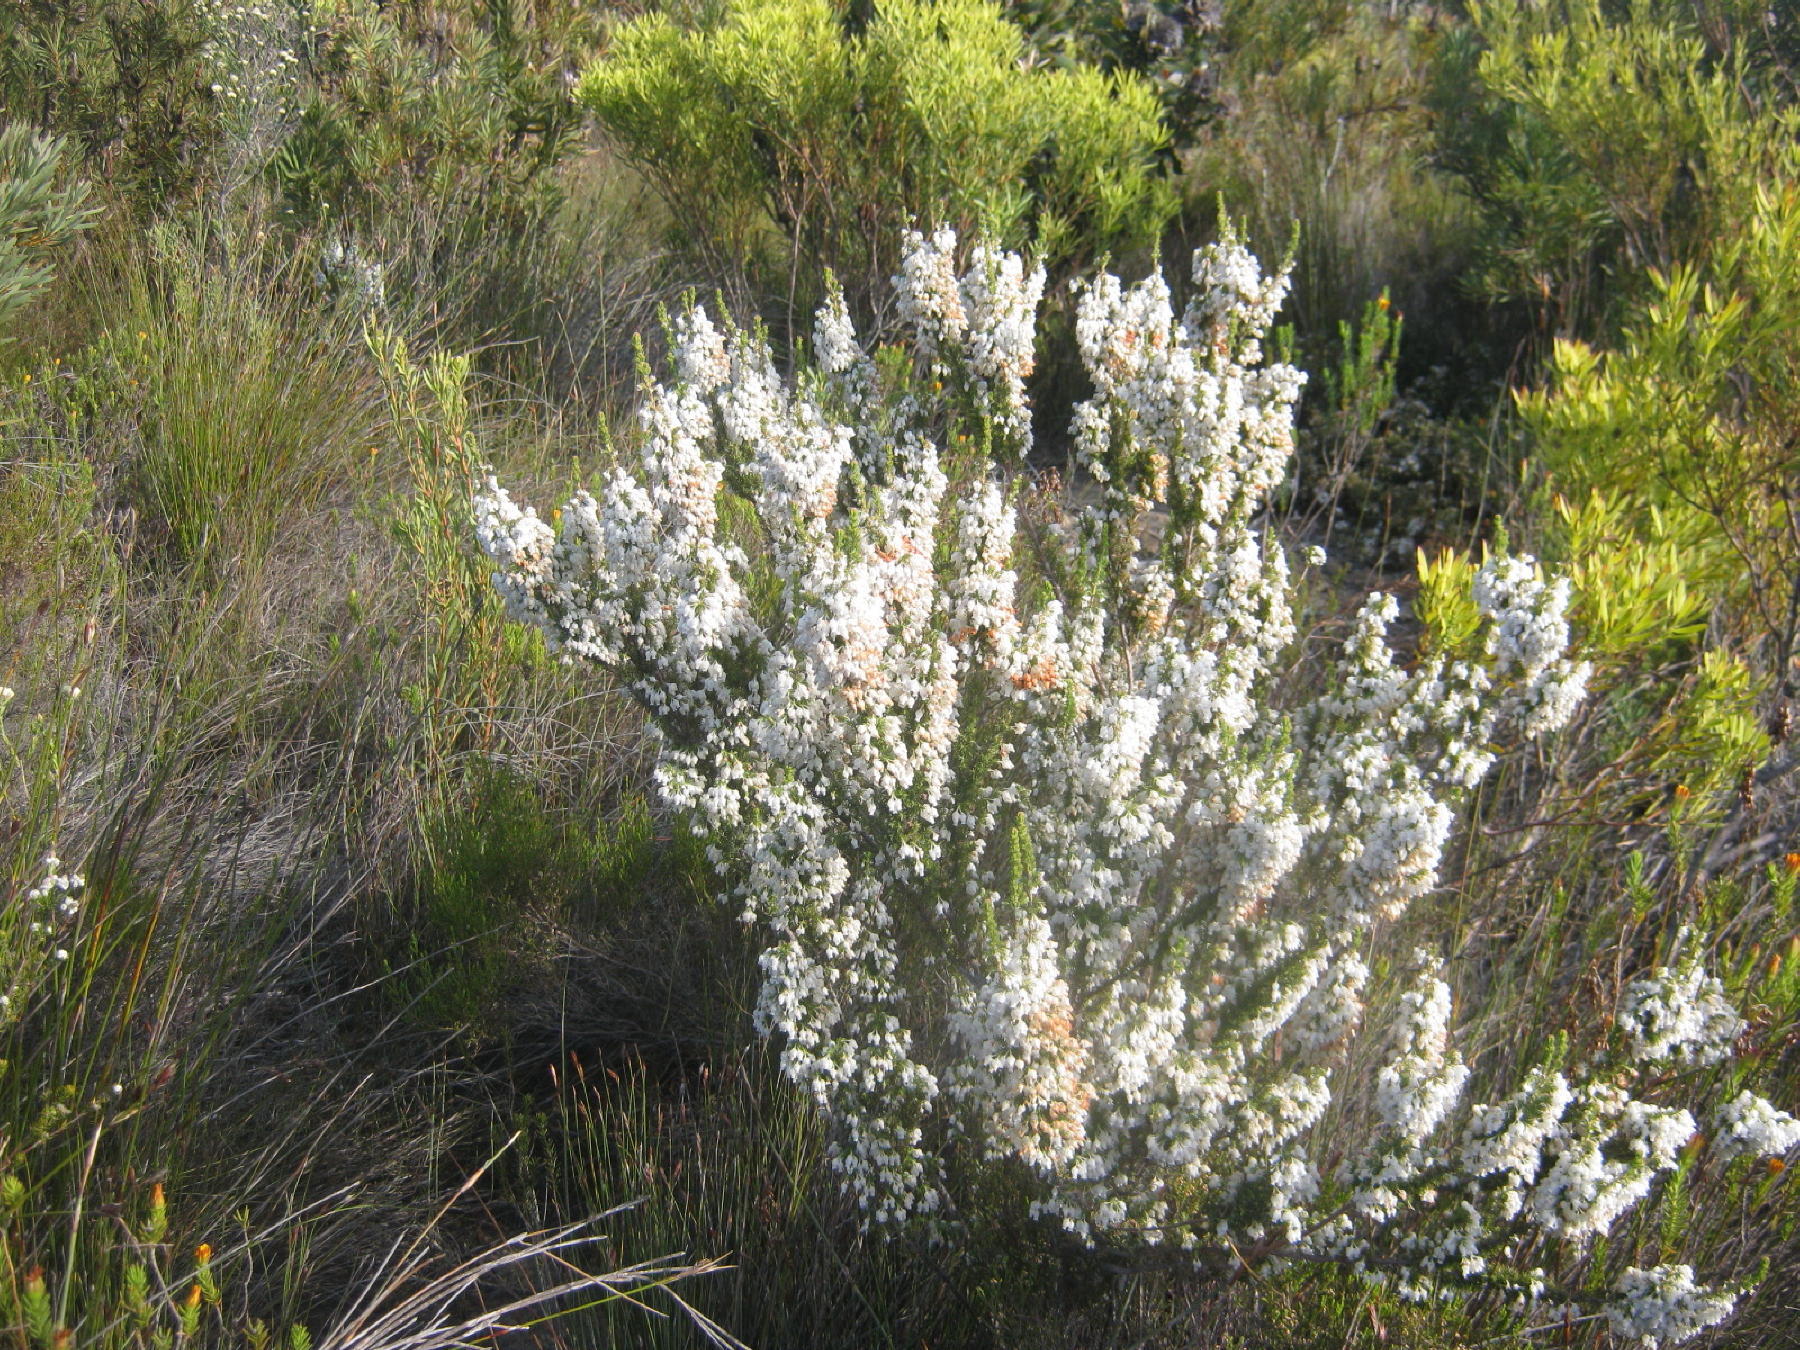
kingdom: Plantae
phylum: Tracheophyta
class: Magnoliopsida
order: Ericales
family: Ericaceae
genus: Erica
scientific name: Erica glomiflora
